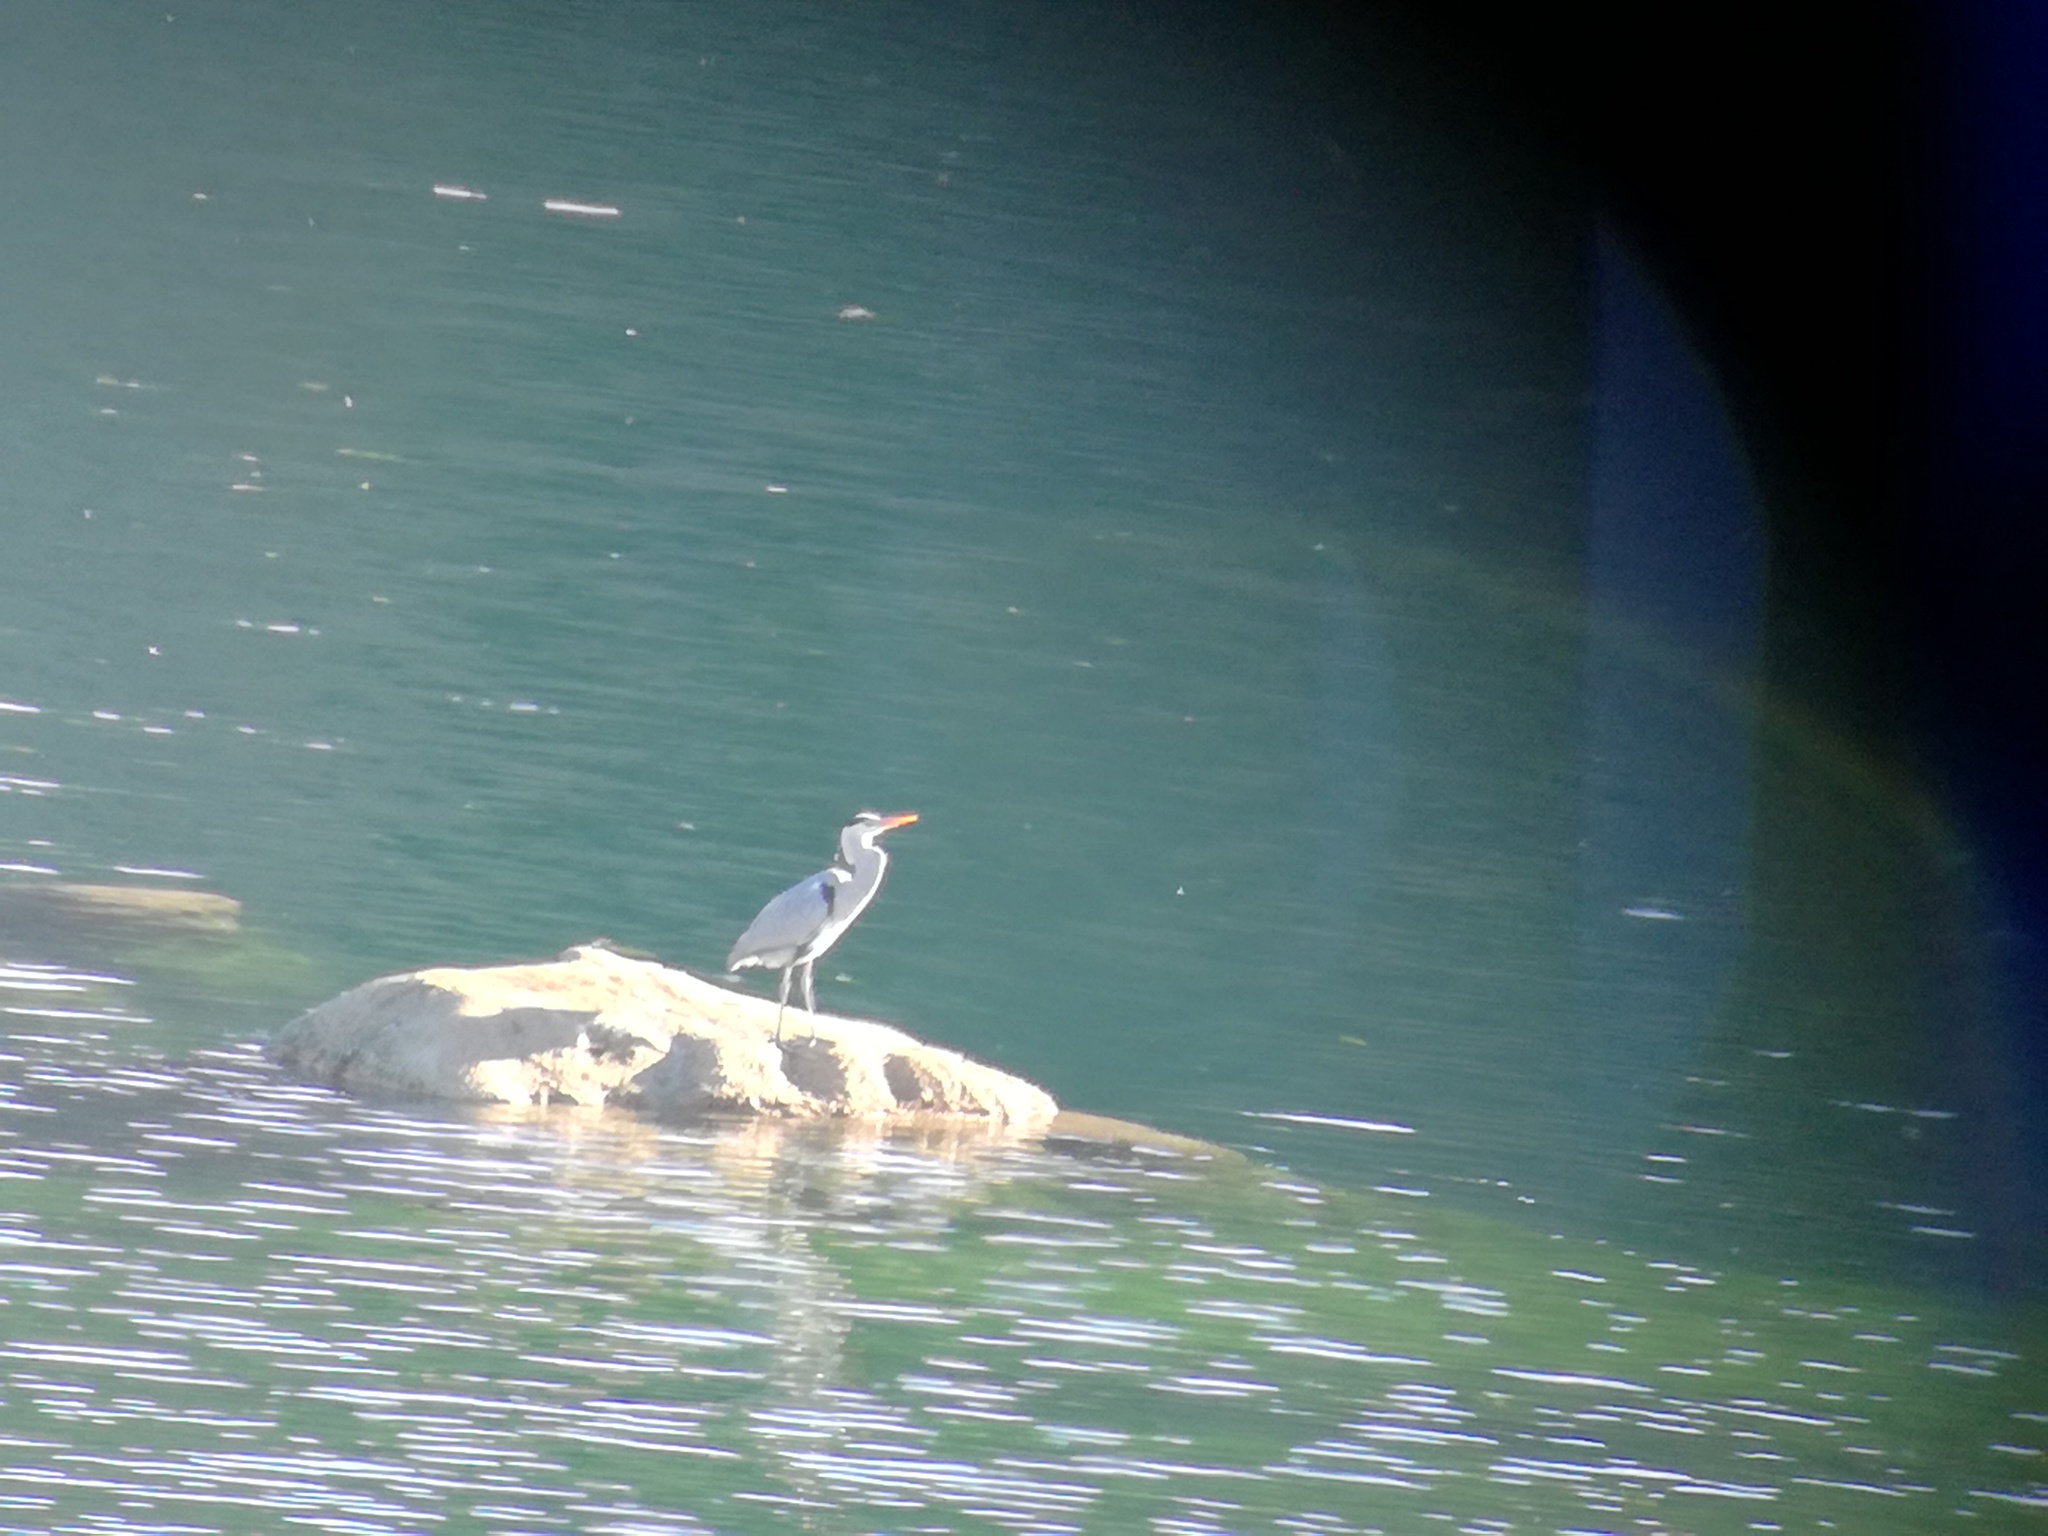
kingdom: Animalia
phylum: Chordata
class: Aves
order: Pelecaniformes
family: Ardeidae
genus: Ardea
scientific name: Ardea cinerea
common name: Grey heron
